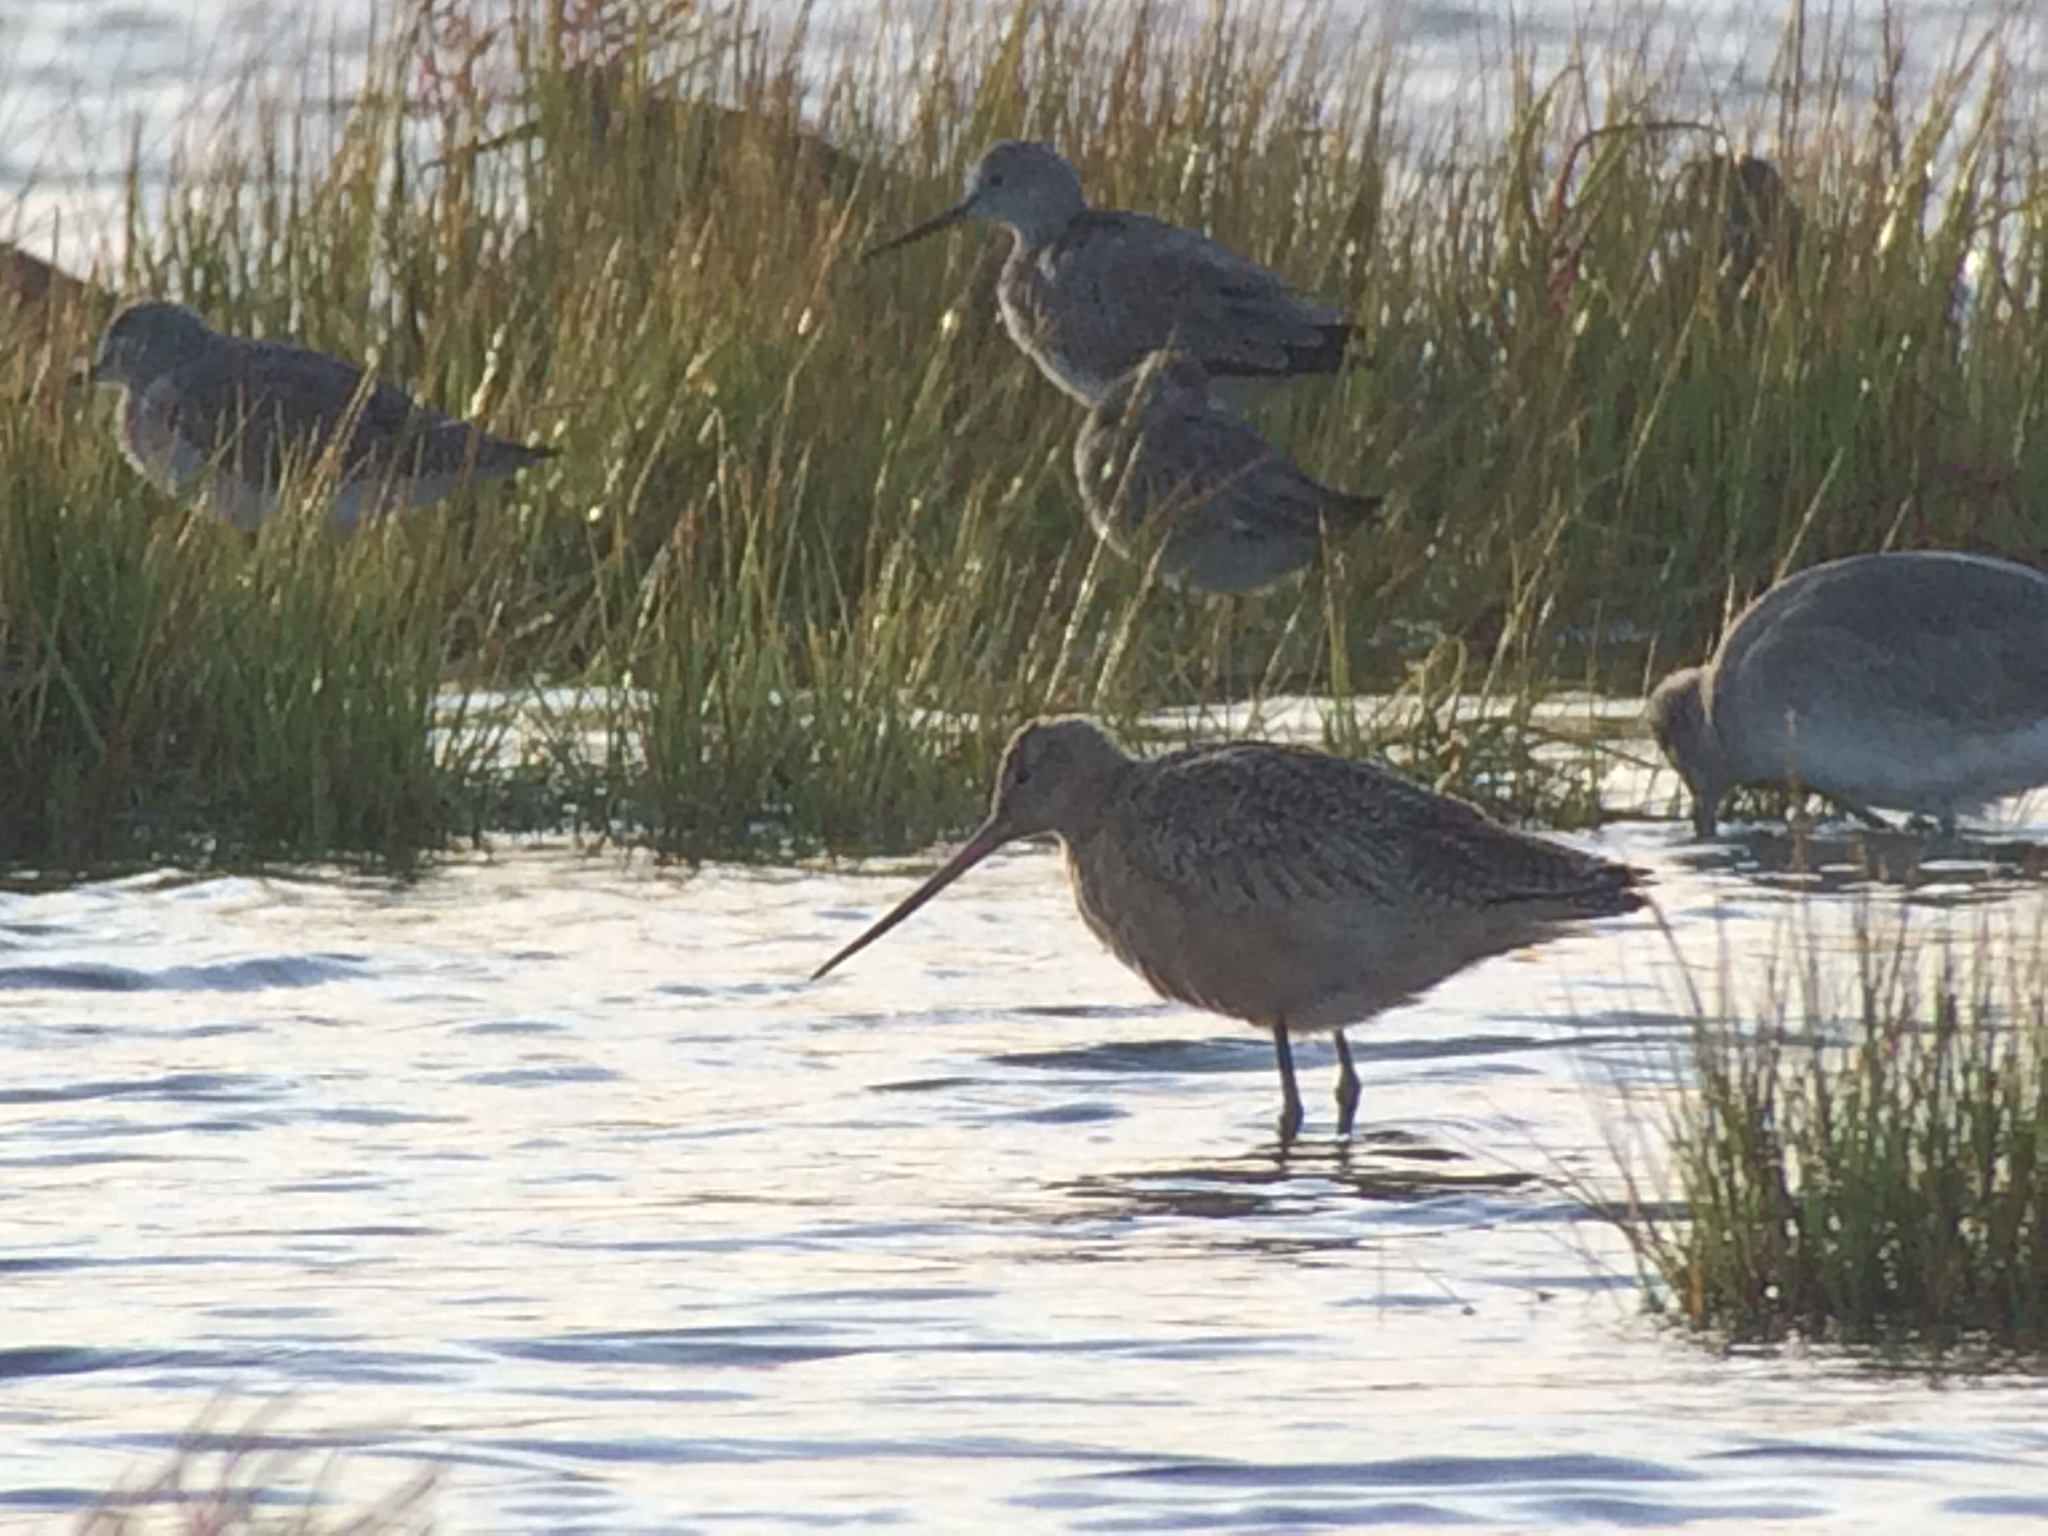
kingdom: Animalia
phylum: Chordata
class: Aves
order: Charadriiformes
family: Scolopacidae
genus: Limosa
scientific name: Limosa fedoa
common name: Marbled godwit
